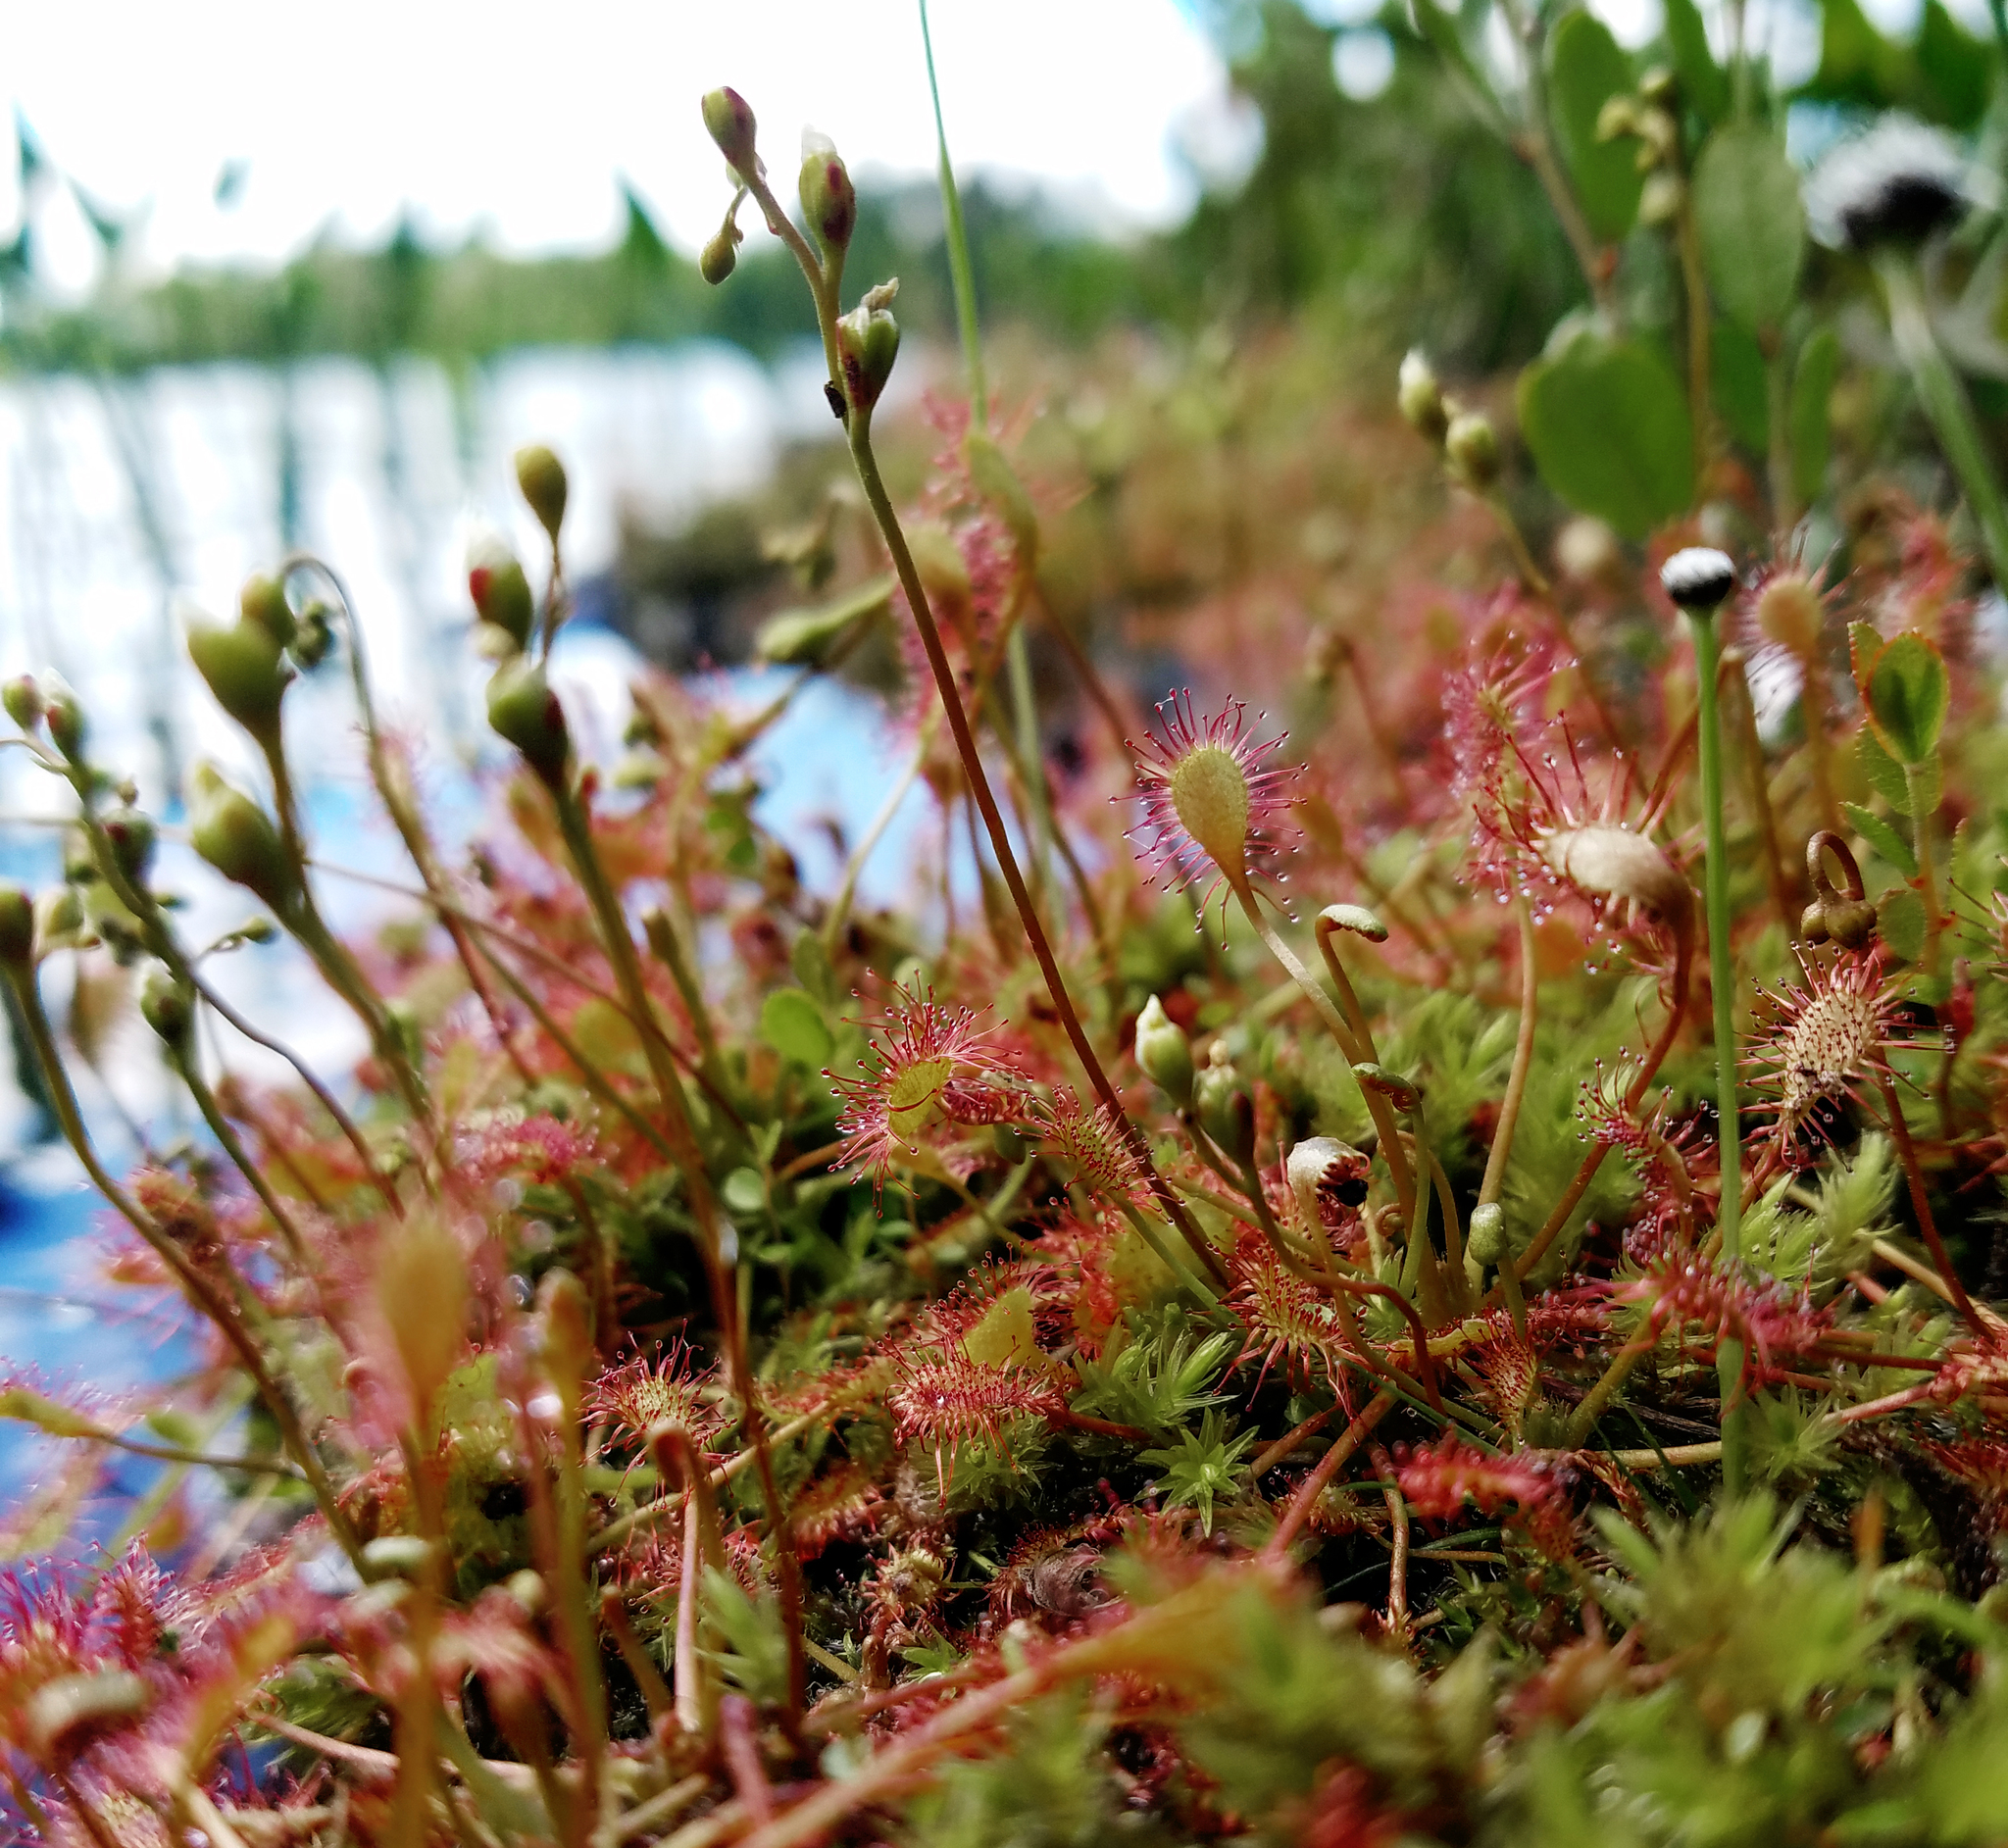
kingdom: Plantae
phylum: Tracheophyta
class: Magnoliopsida
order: Caryophyllales
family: Droseraceae
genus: Drosera
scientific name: Drosera intermedia
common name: Oblong-leaved sundew
